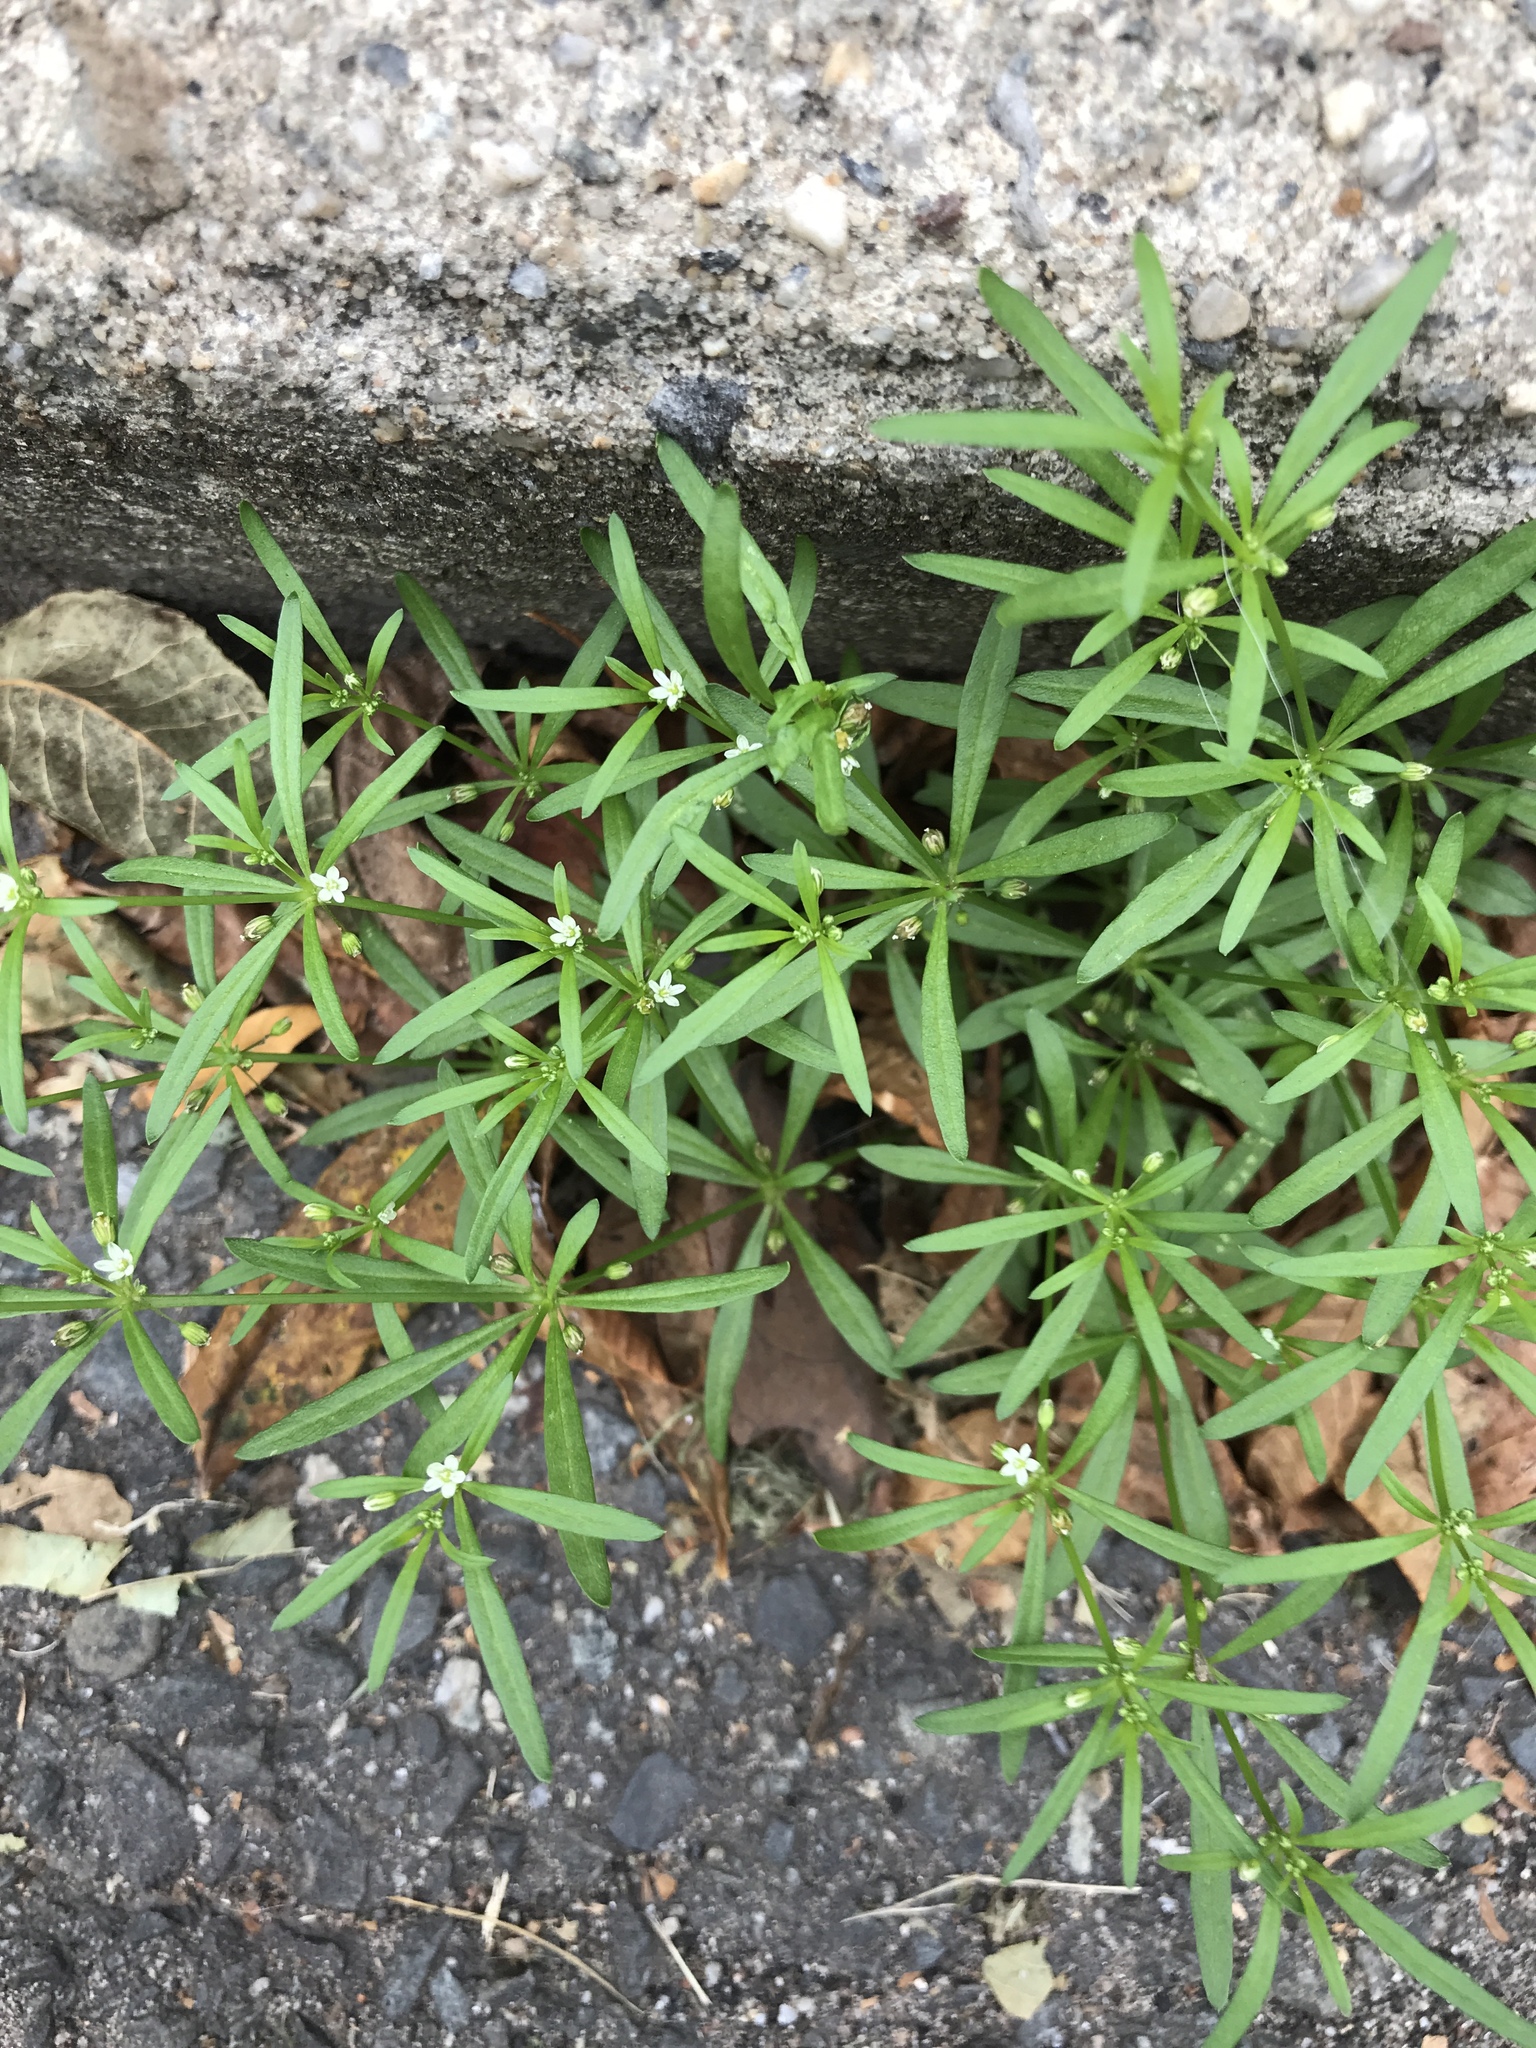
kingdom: Plantae
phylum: Tracheophyta
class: Magnoliopsida
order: Caryophyllales
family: Molluginaceae
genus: Mollugo
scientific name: Mollugo verticillata
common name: Green carpetweed
